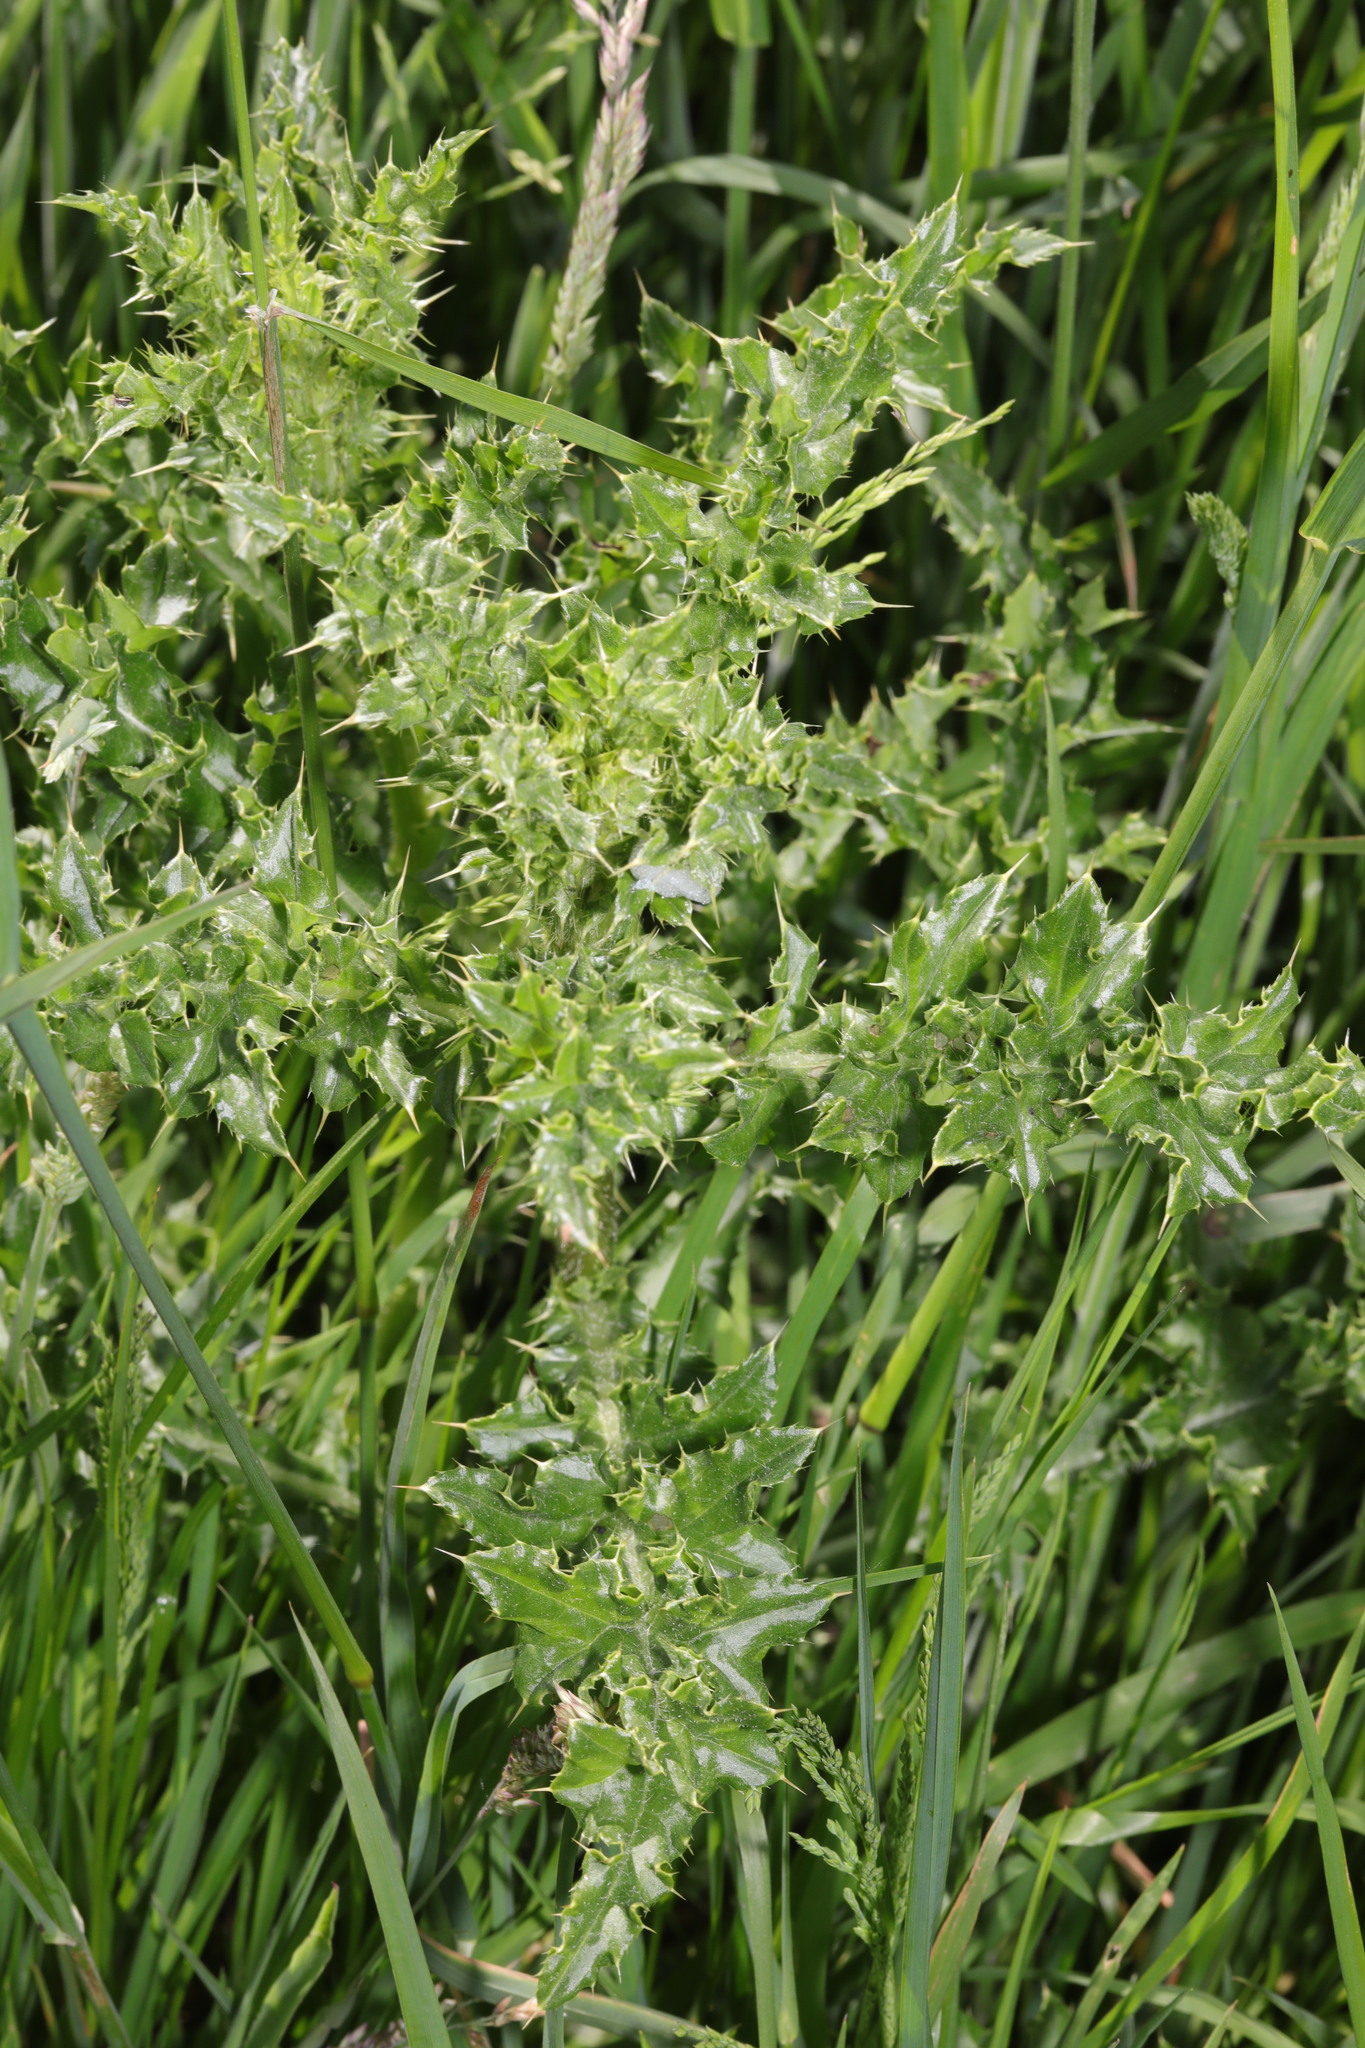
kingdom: Plantae
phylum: Tracheophyta
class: Magnoliopsida
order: Asterales
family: Asteraceae
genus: Cirsium
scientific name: Cirsium arvense
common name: Creeping thistle
